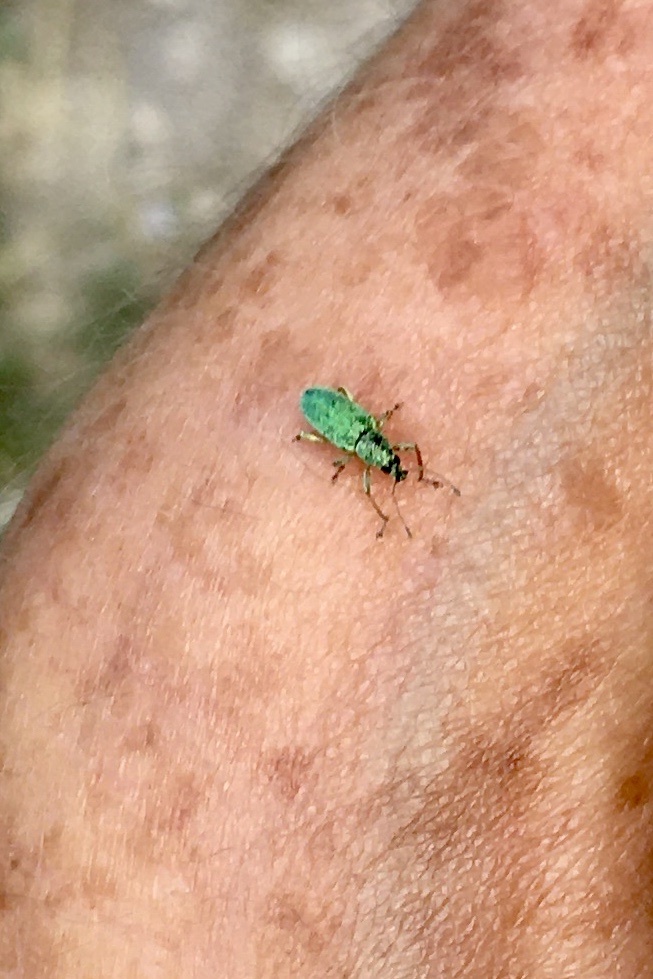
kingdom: Animalia
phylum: Arthropoda
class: Insecta
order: Coleoptera
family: Curculionidae
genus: Polydrusus
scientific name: Polydrusus formosus
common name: Weevil
